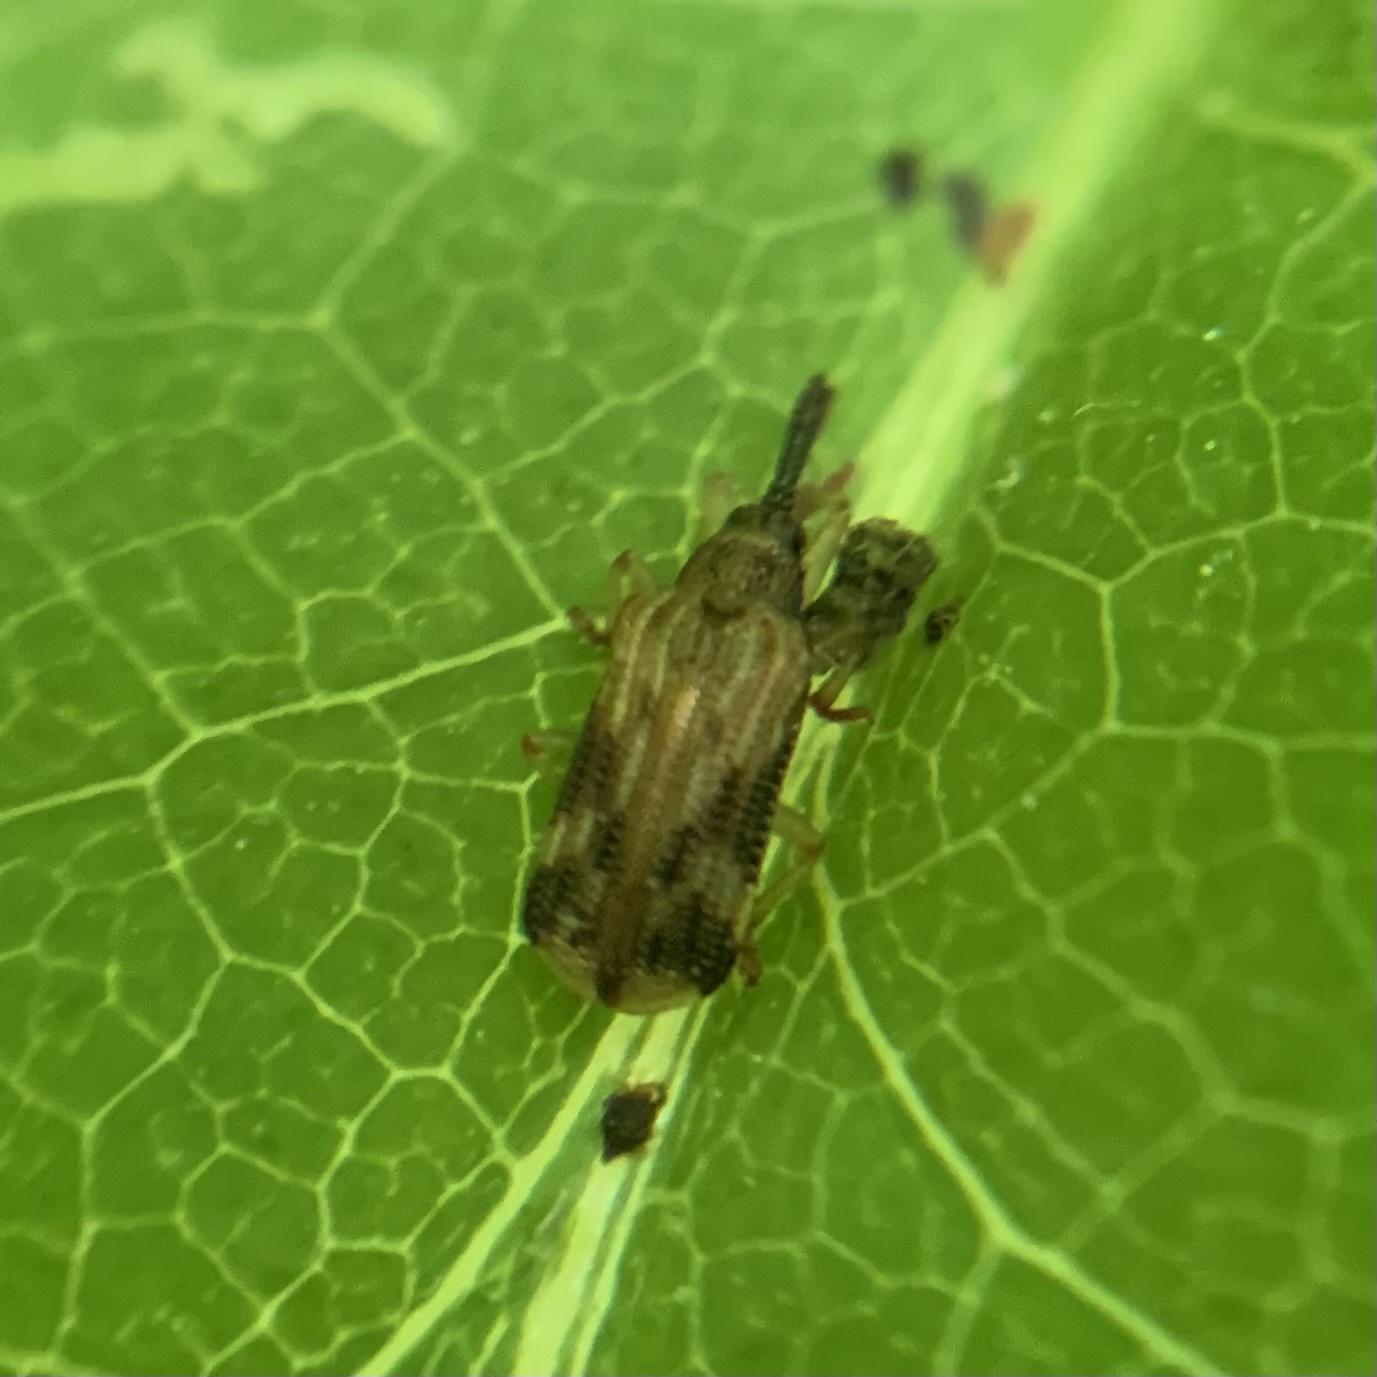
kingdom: Animalia
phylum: Arthropoda
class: Insecta
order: Coleoptera
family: Chrysomelidae
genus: Sumitrosis
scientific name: Sumitrosis inaequalis
